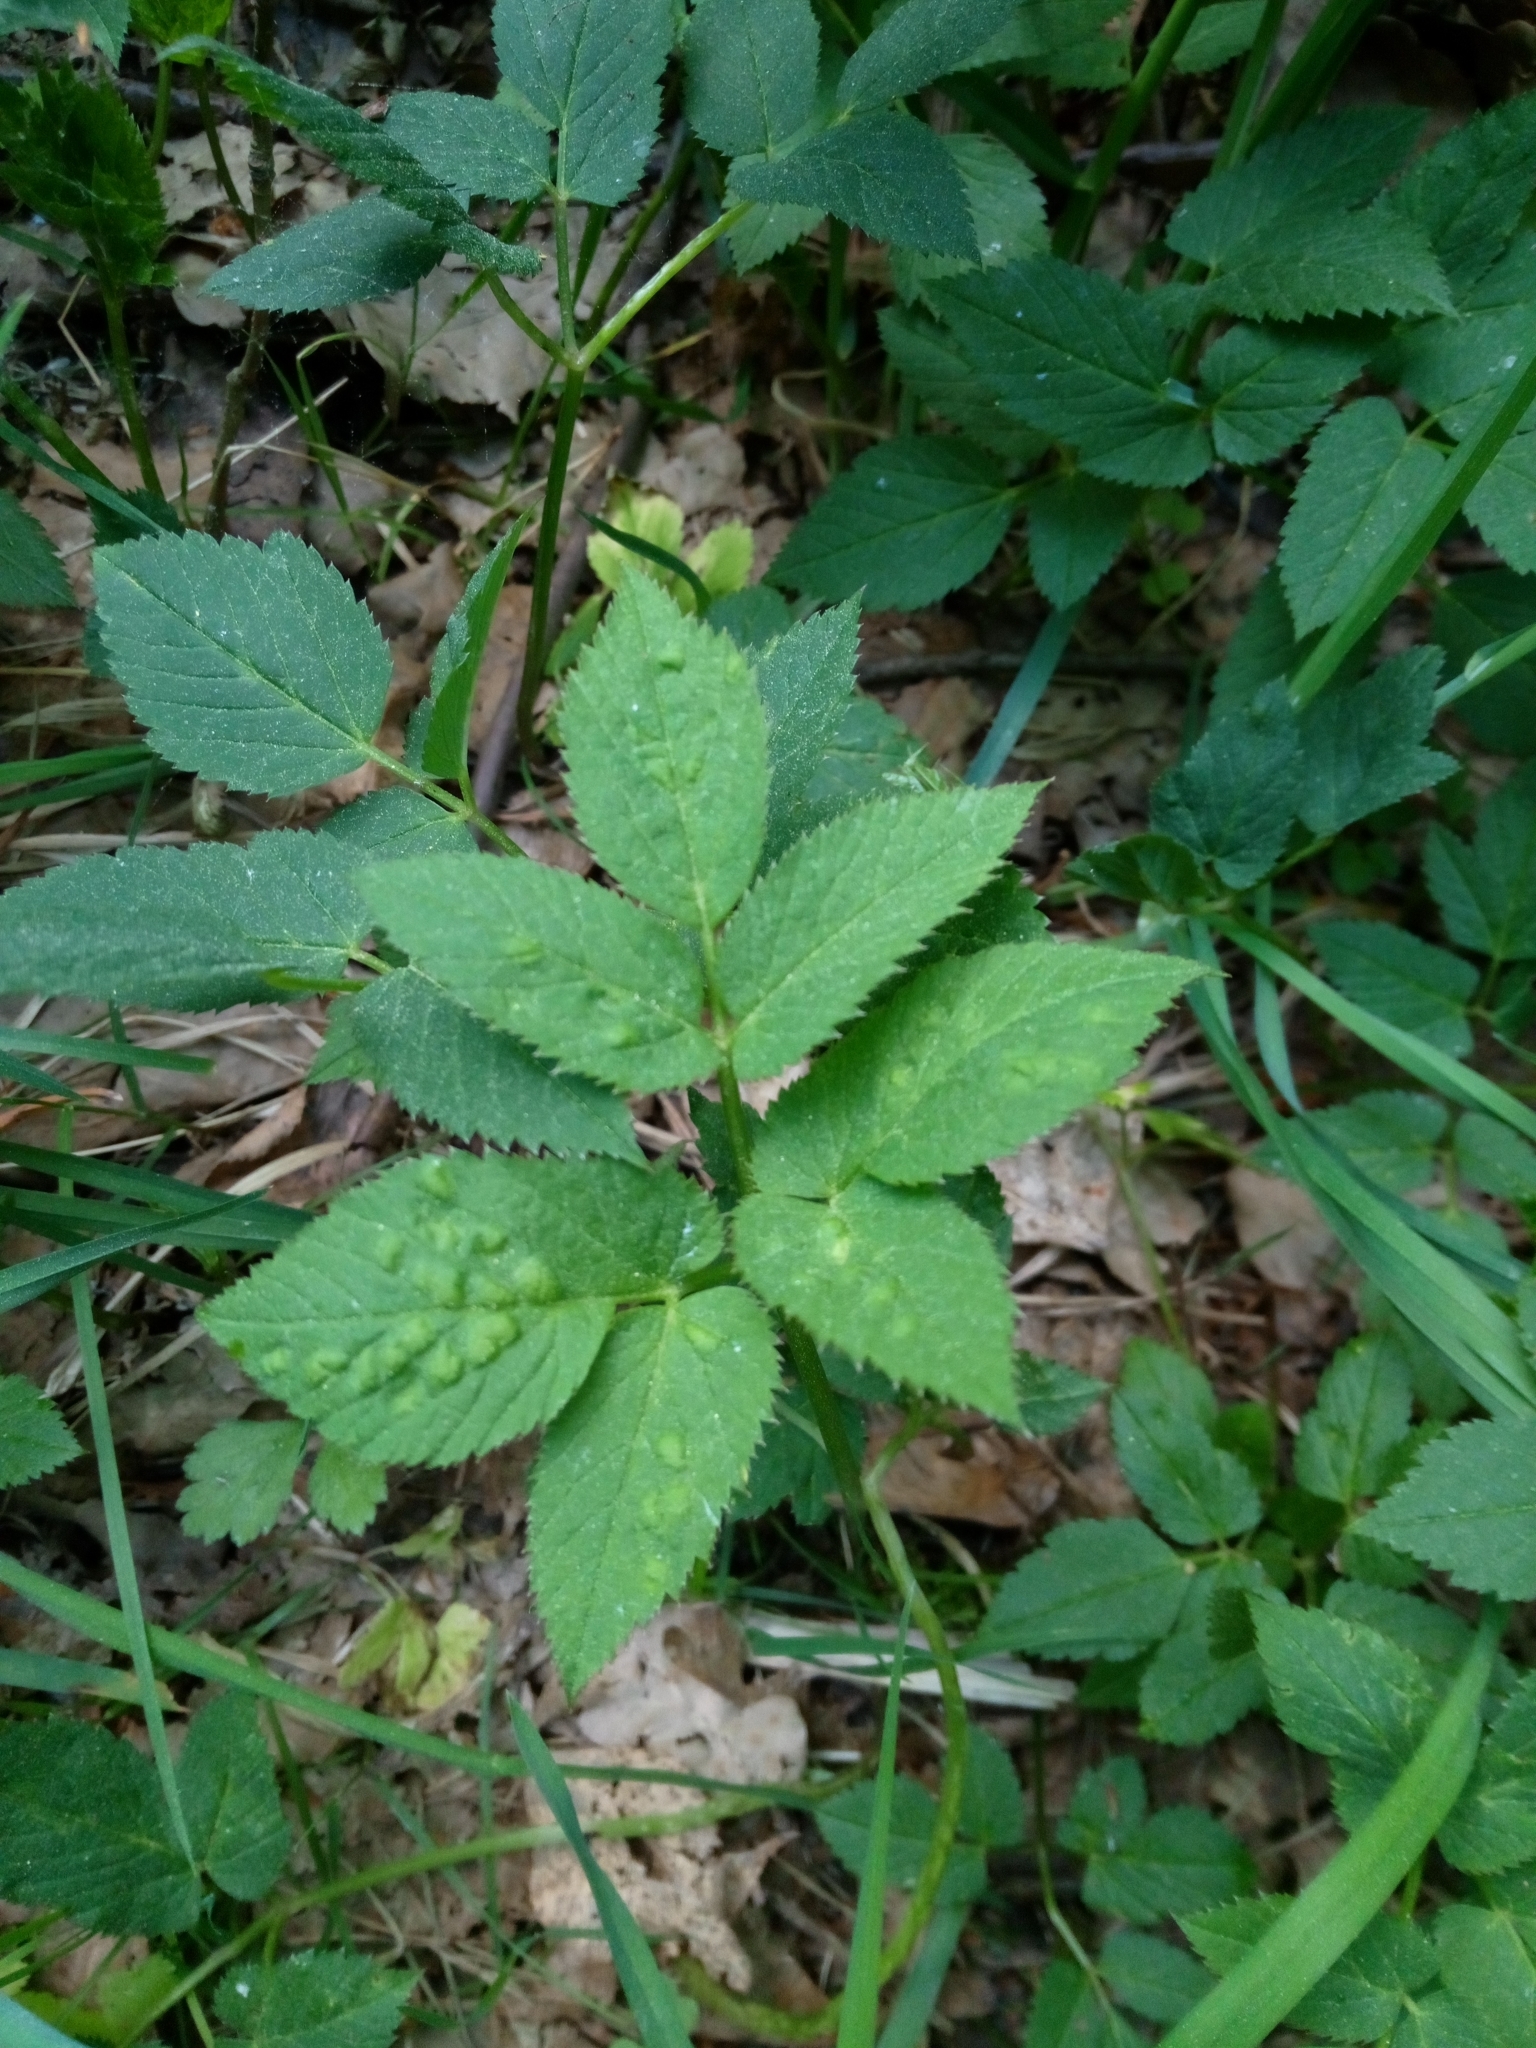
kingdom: Plantae
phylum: Tracheophyta
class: Magnoliopsida
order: Apiales
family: Apiaceae
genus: Aegopodium
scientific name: Aegopodium podagraria
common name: Ground-elder
